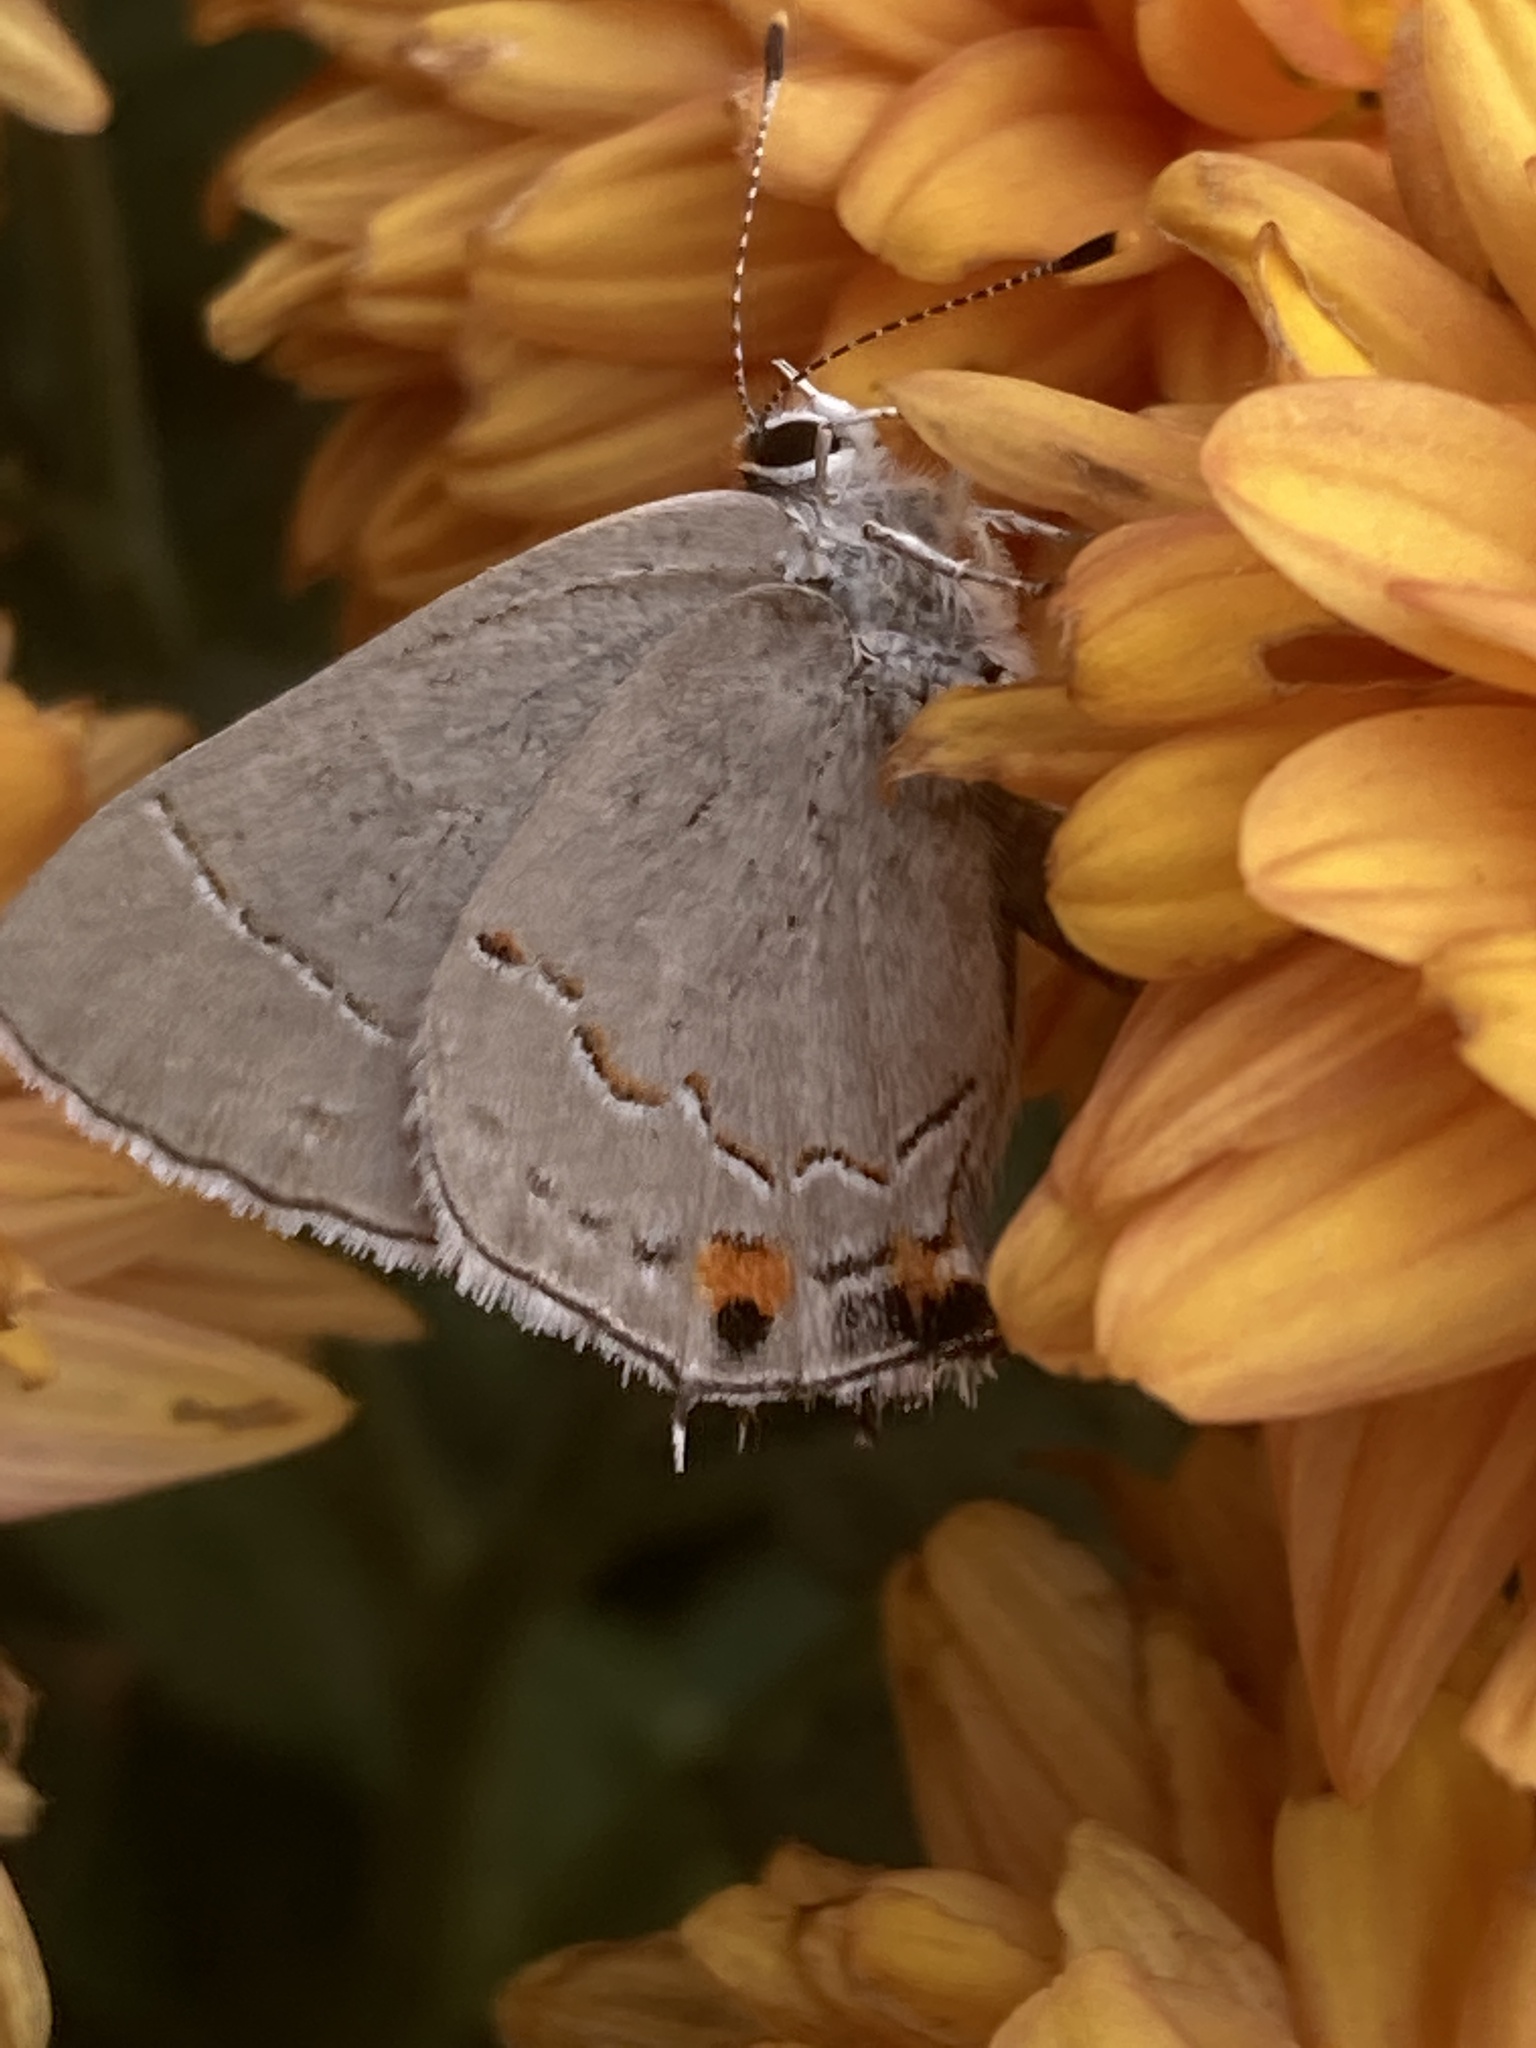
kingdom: Animalia
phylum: Arthropoda
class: Insecta
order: Lepidoptera
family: Lycaenidae
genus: Strymon
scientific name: Strymon melinus
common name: Gray hairstreak
